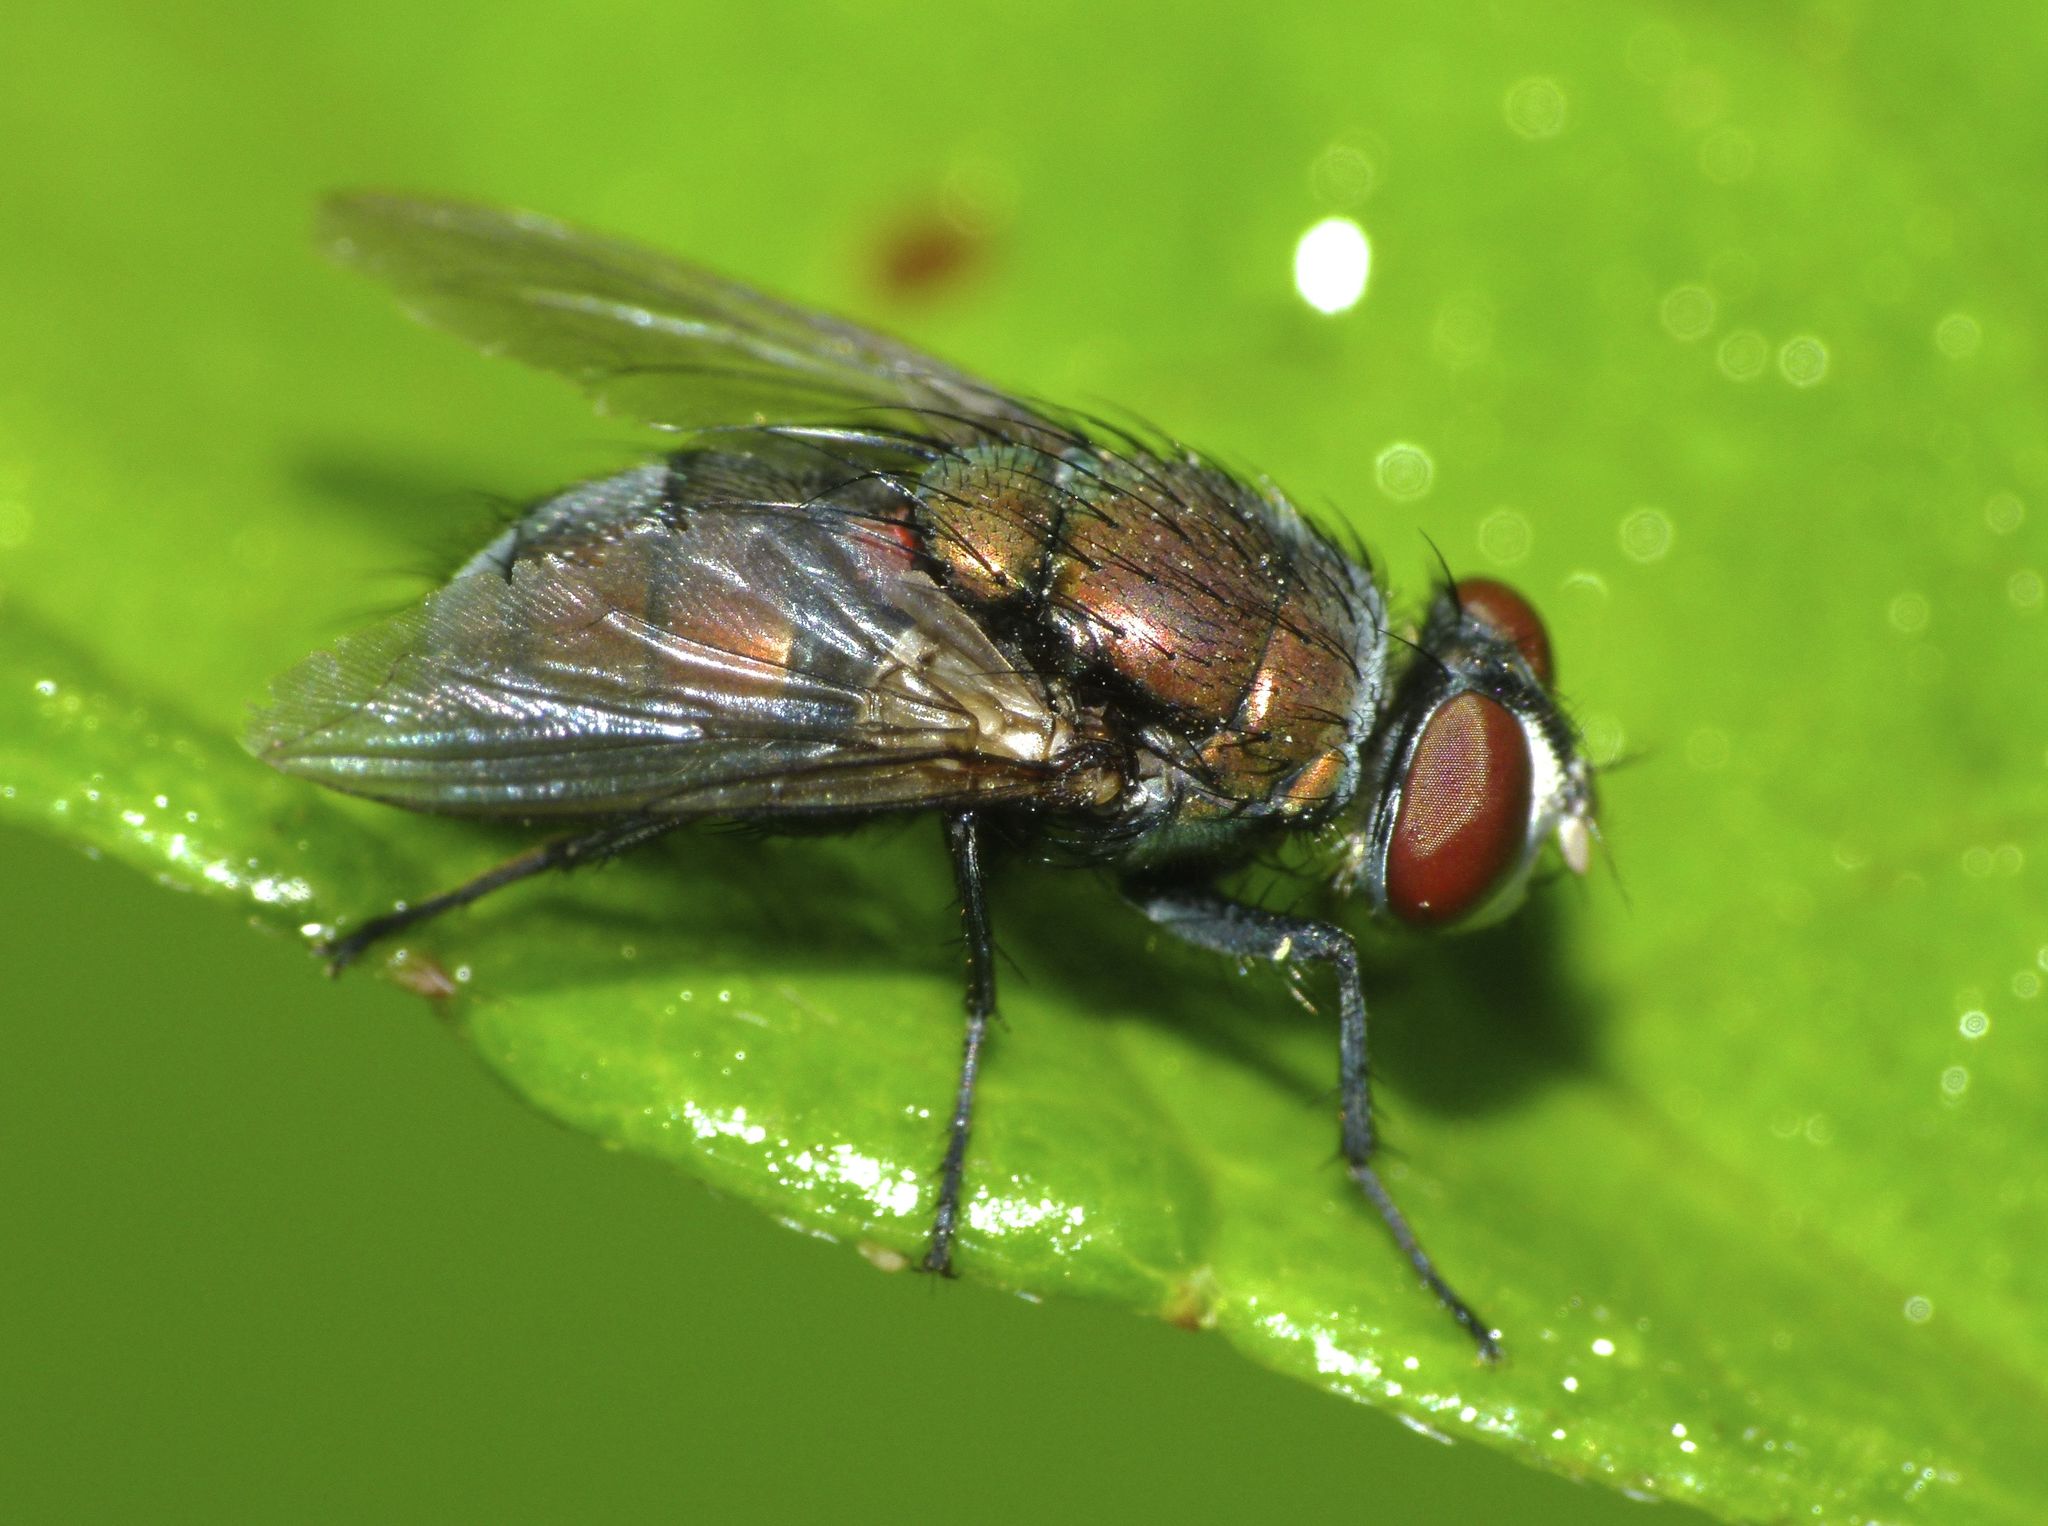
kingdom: Animalia
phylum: Arthropoda
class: Insecta
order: Diptera
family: Calliphoridae
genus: Lucilia
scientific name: Lucilia cuprina
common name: Sheep blow fly
